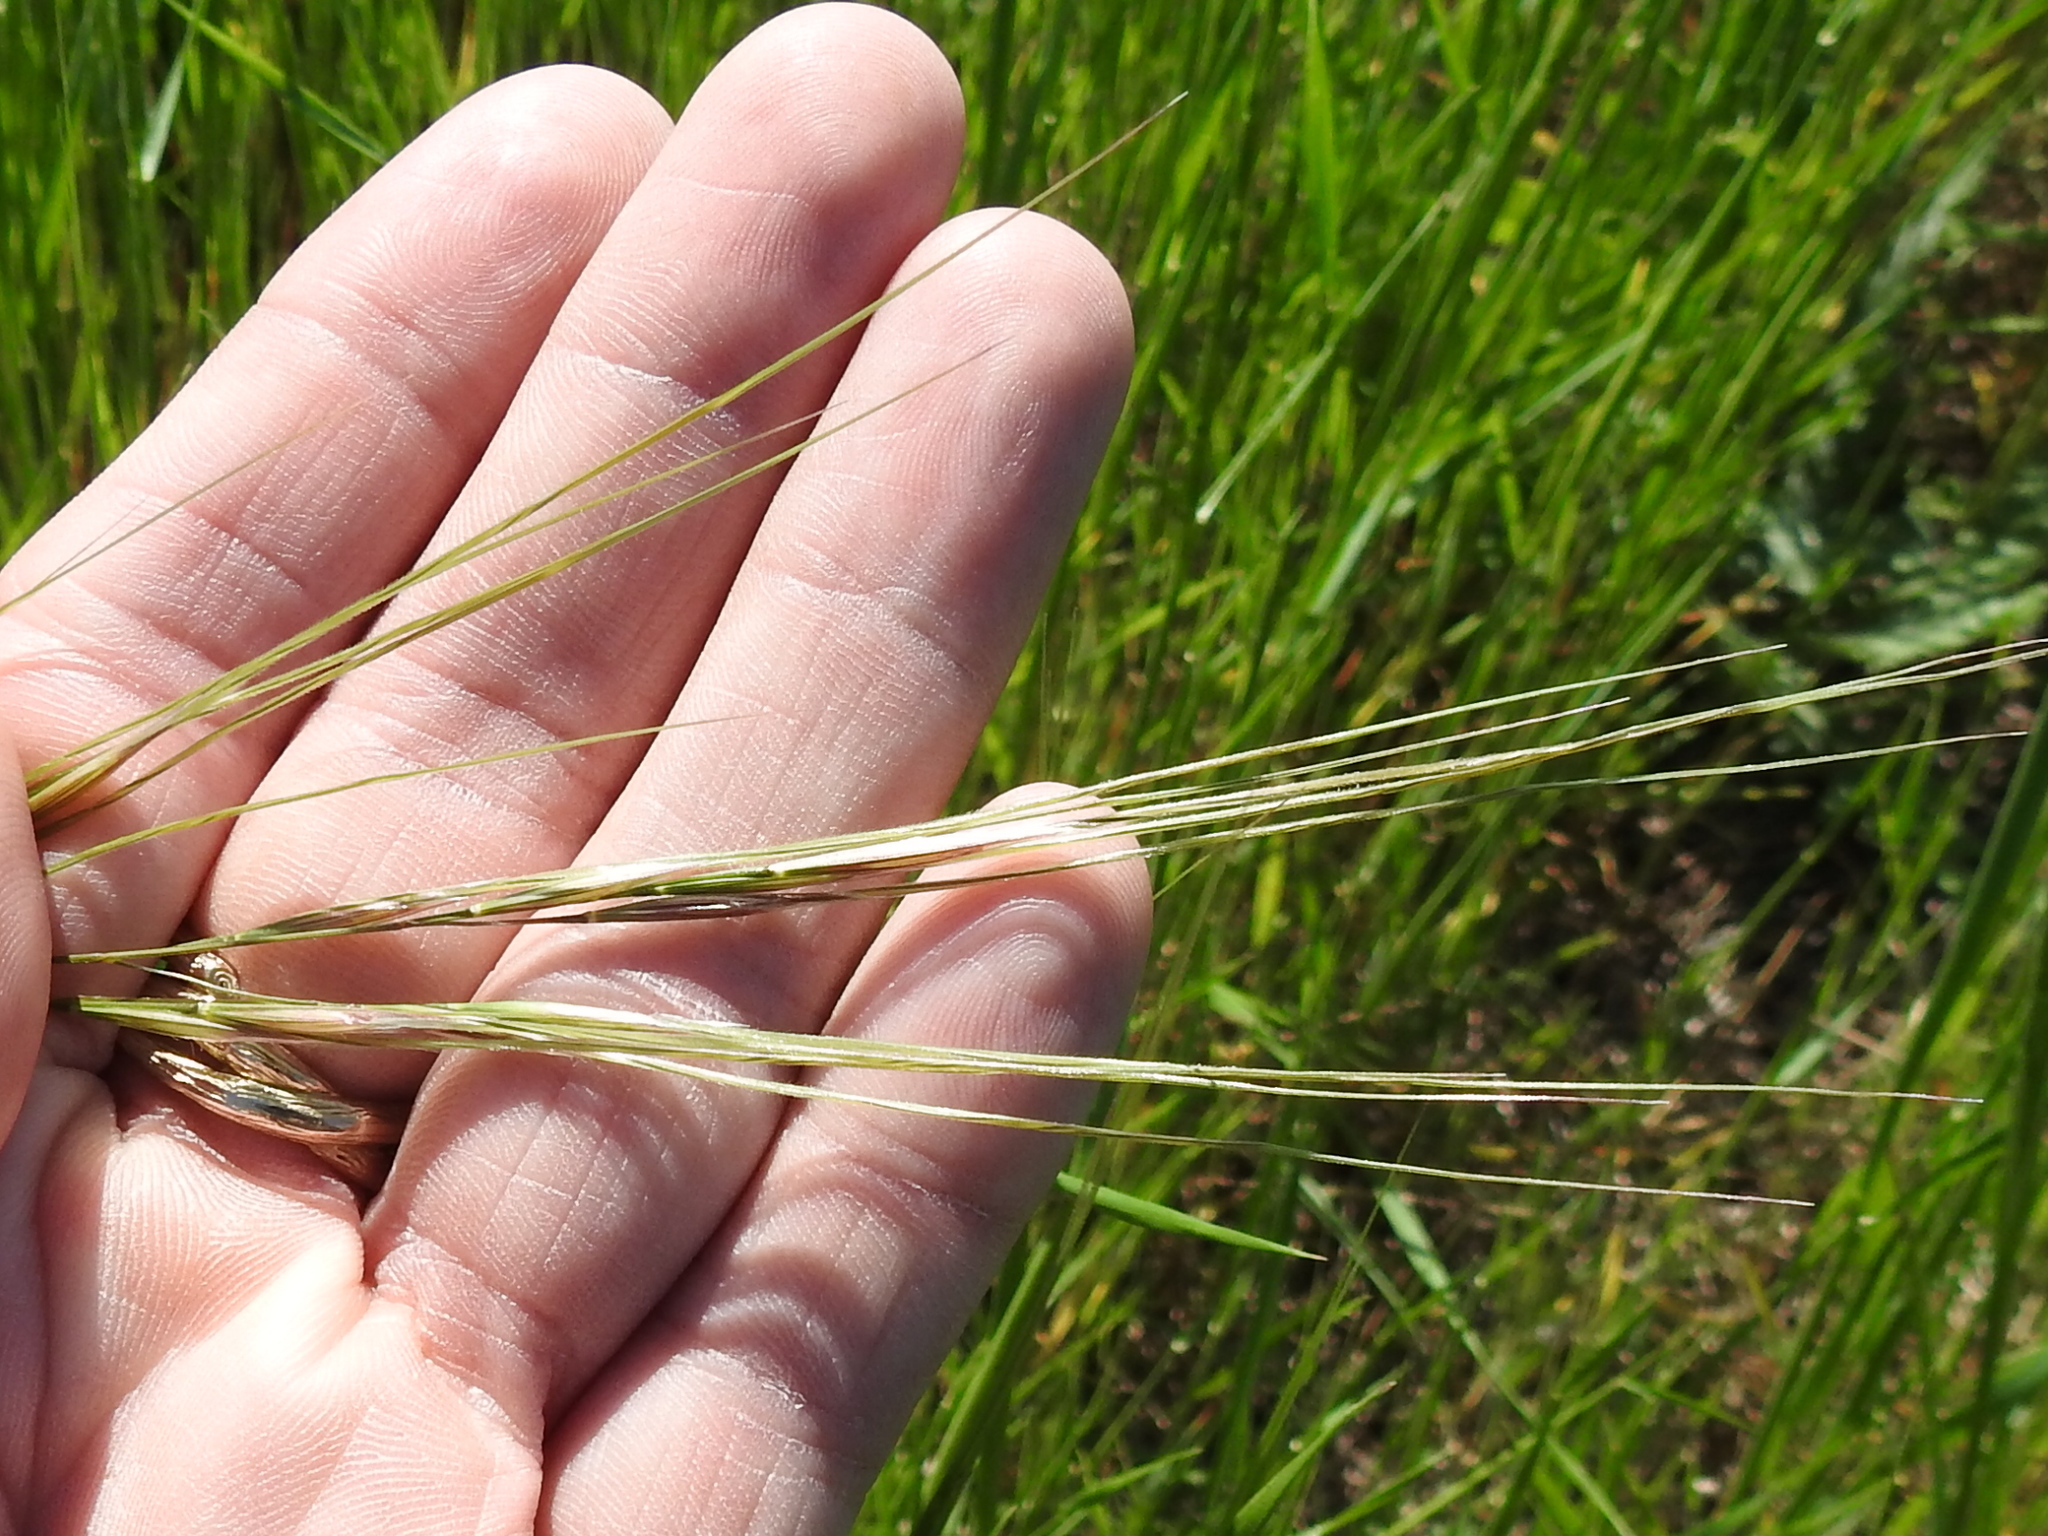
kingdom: Plantae
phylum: Tracheophyta
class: Liliopsida
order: Poales
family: Poaceae
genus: Nassella
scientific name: Nassella leucotricha
